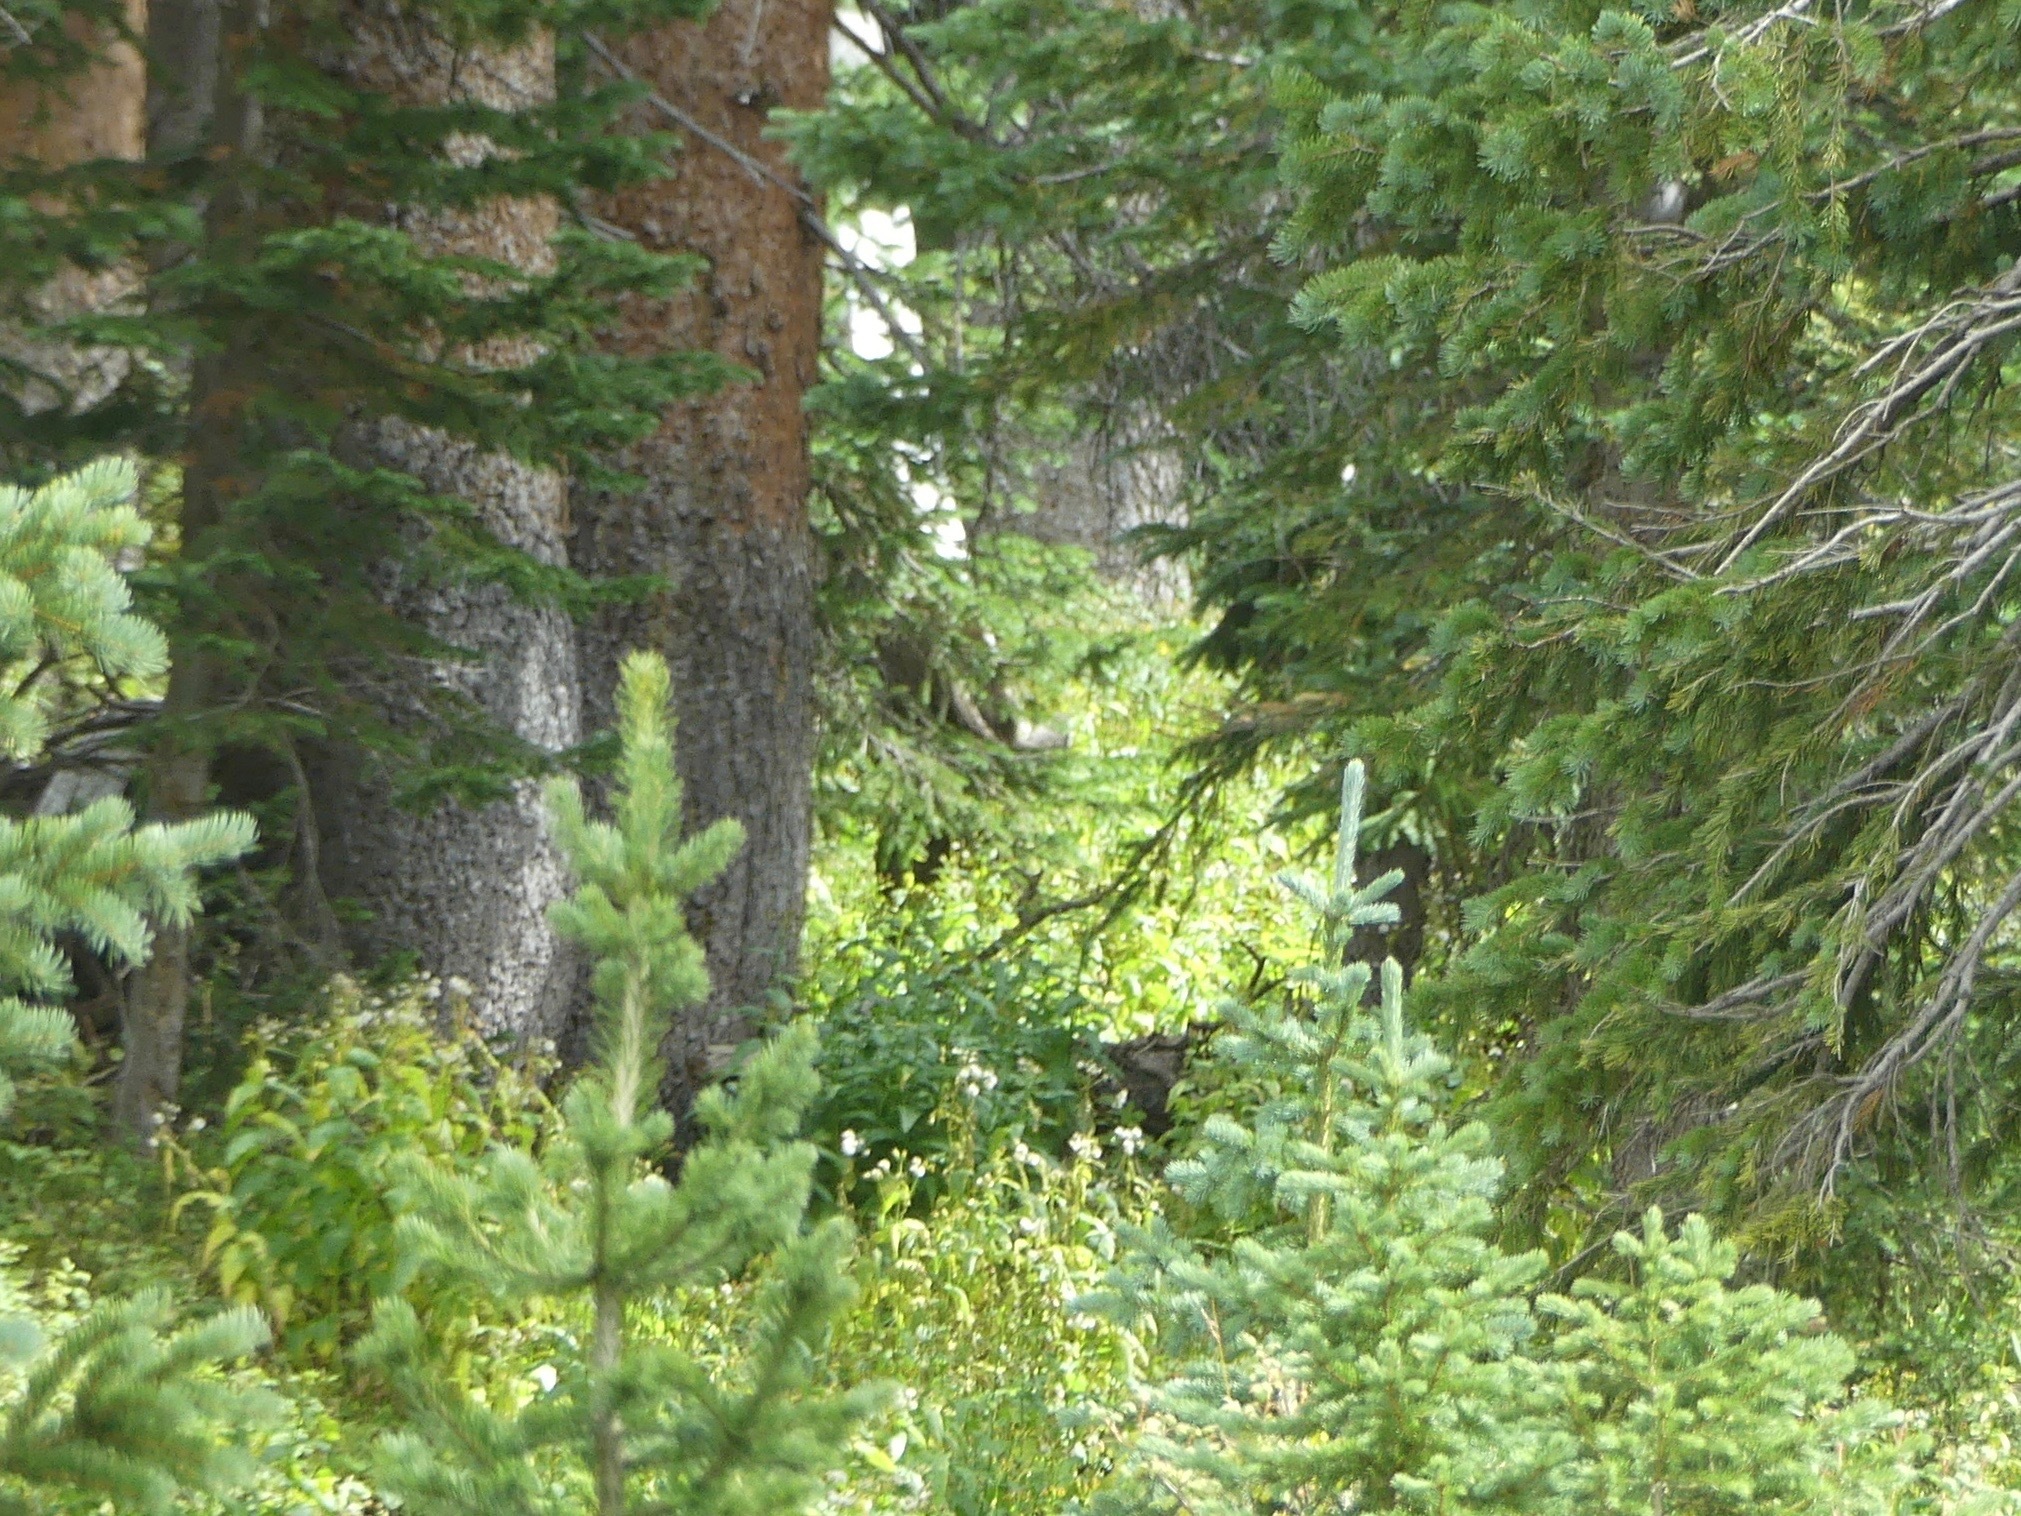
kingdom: Animalia
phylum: Chordata
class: Mammalia
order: Artiodactyla
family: Cervidae
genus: Alces
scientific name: Alces alces
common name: Moose
